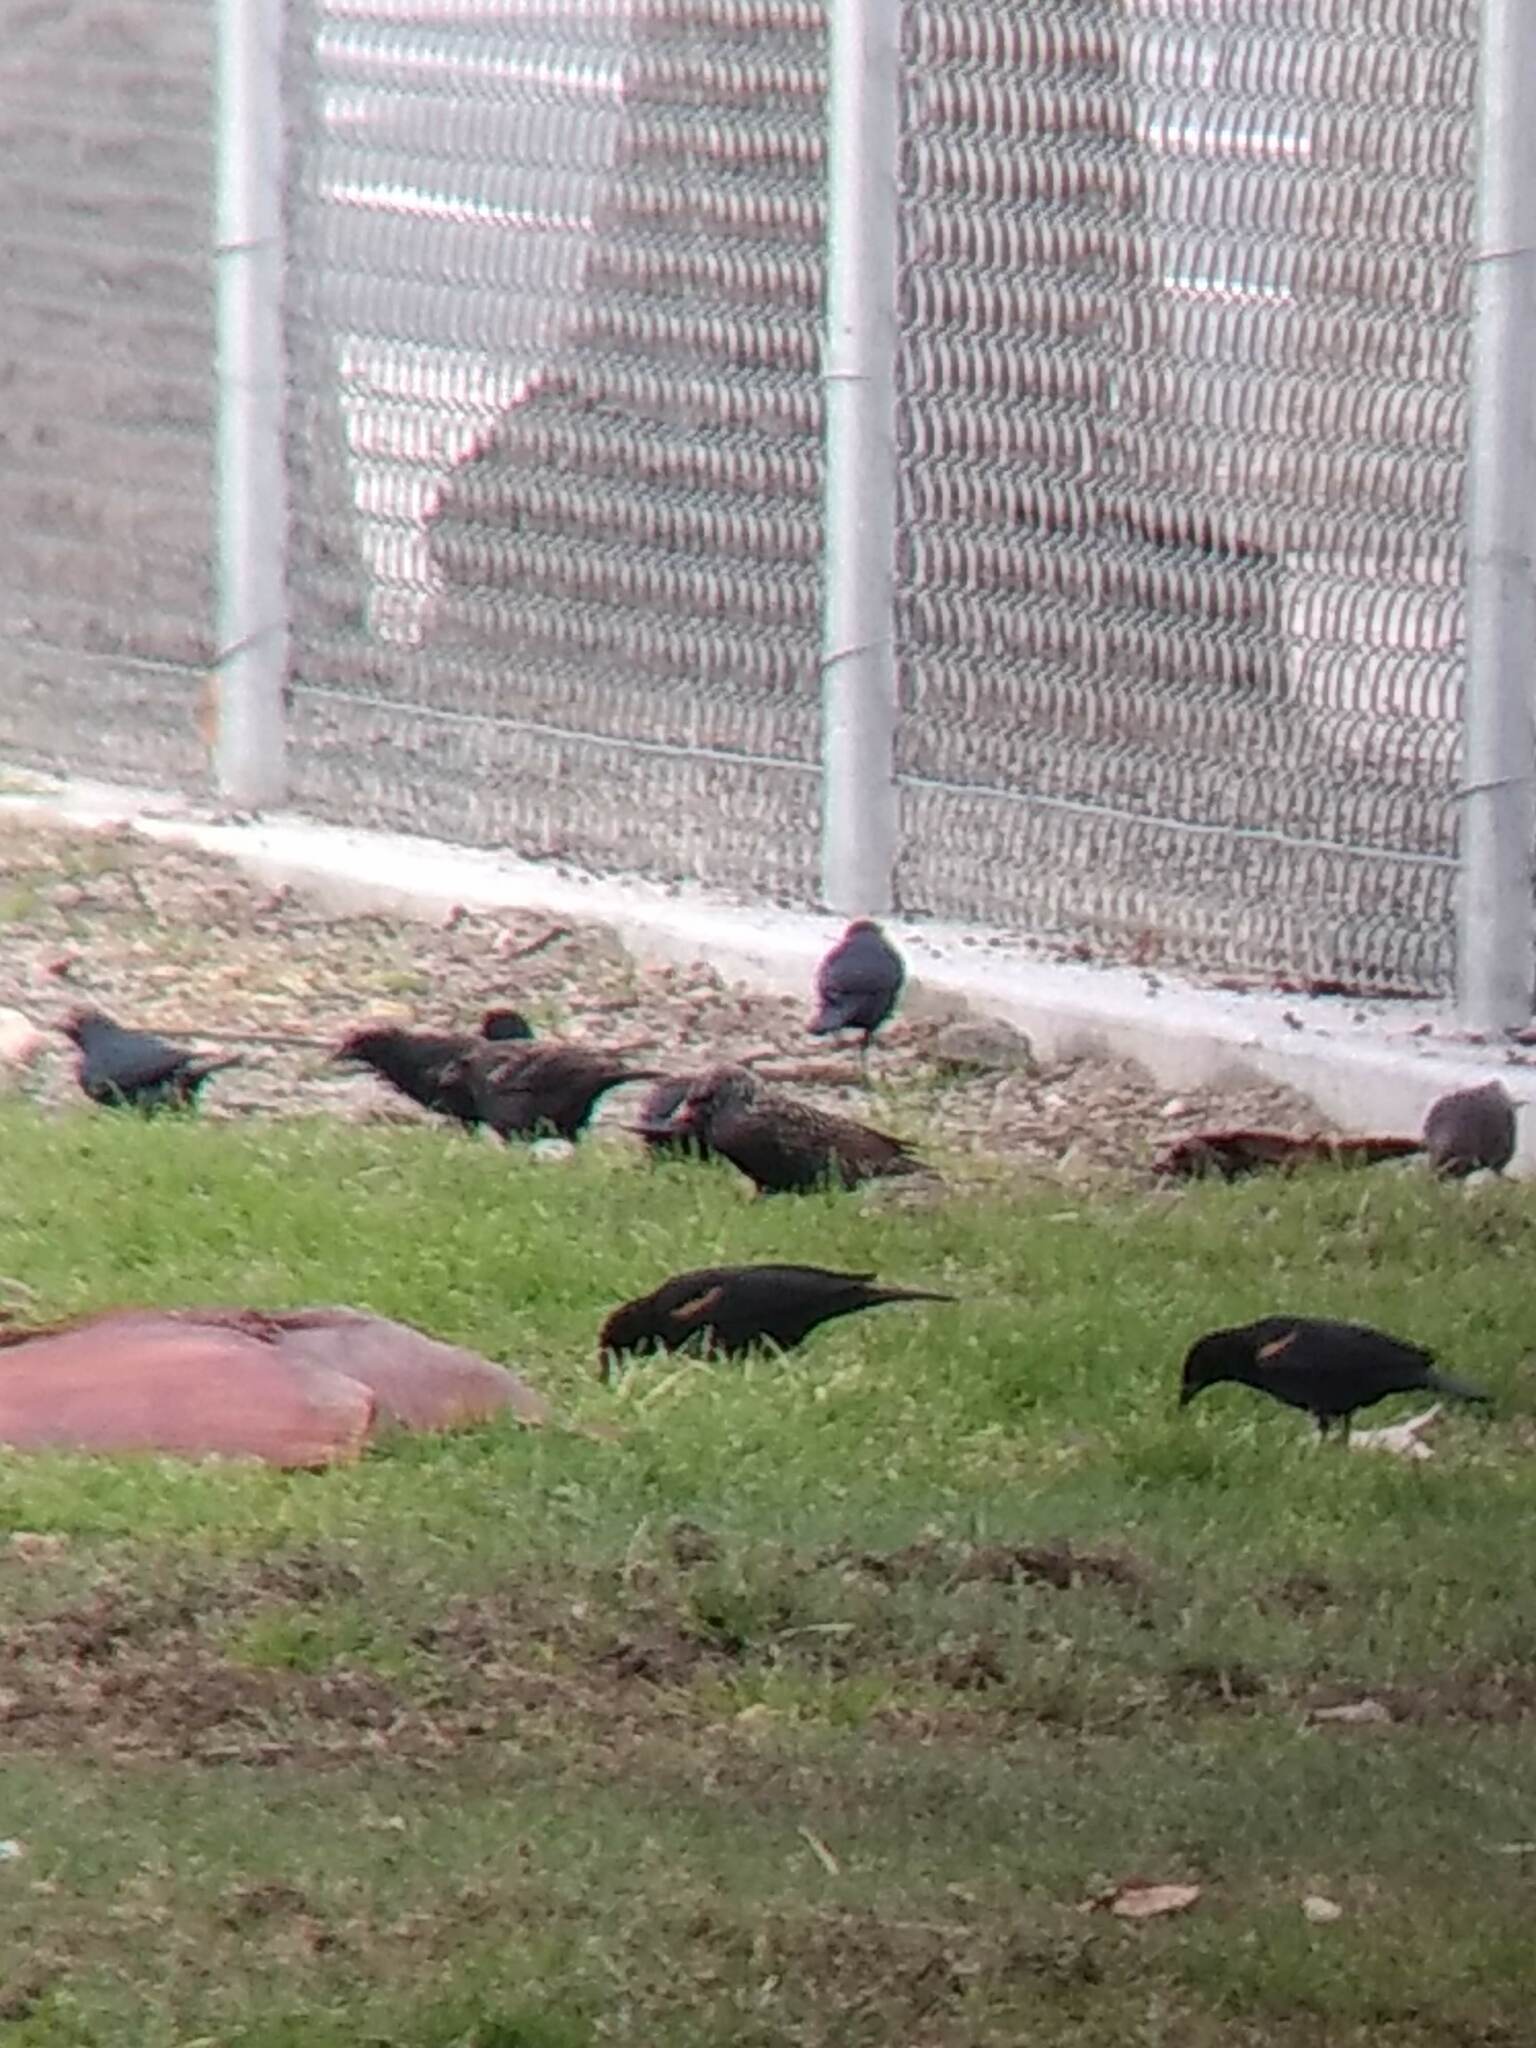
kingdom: Animalia
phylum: Chordata
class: Aves
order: Passeriformes
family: Icteridae
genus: Agelaius
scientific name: Agelaius phoeniceus
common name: Red-winged blackbird
